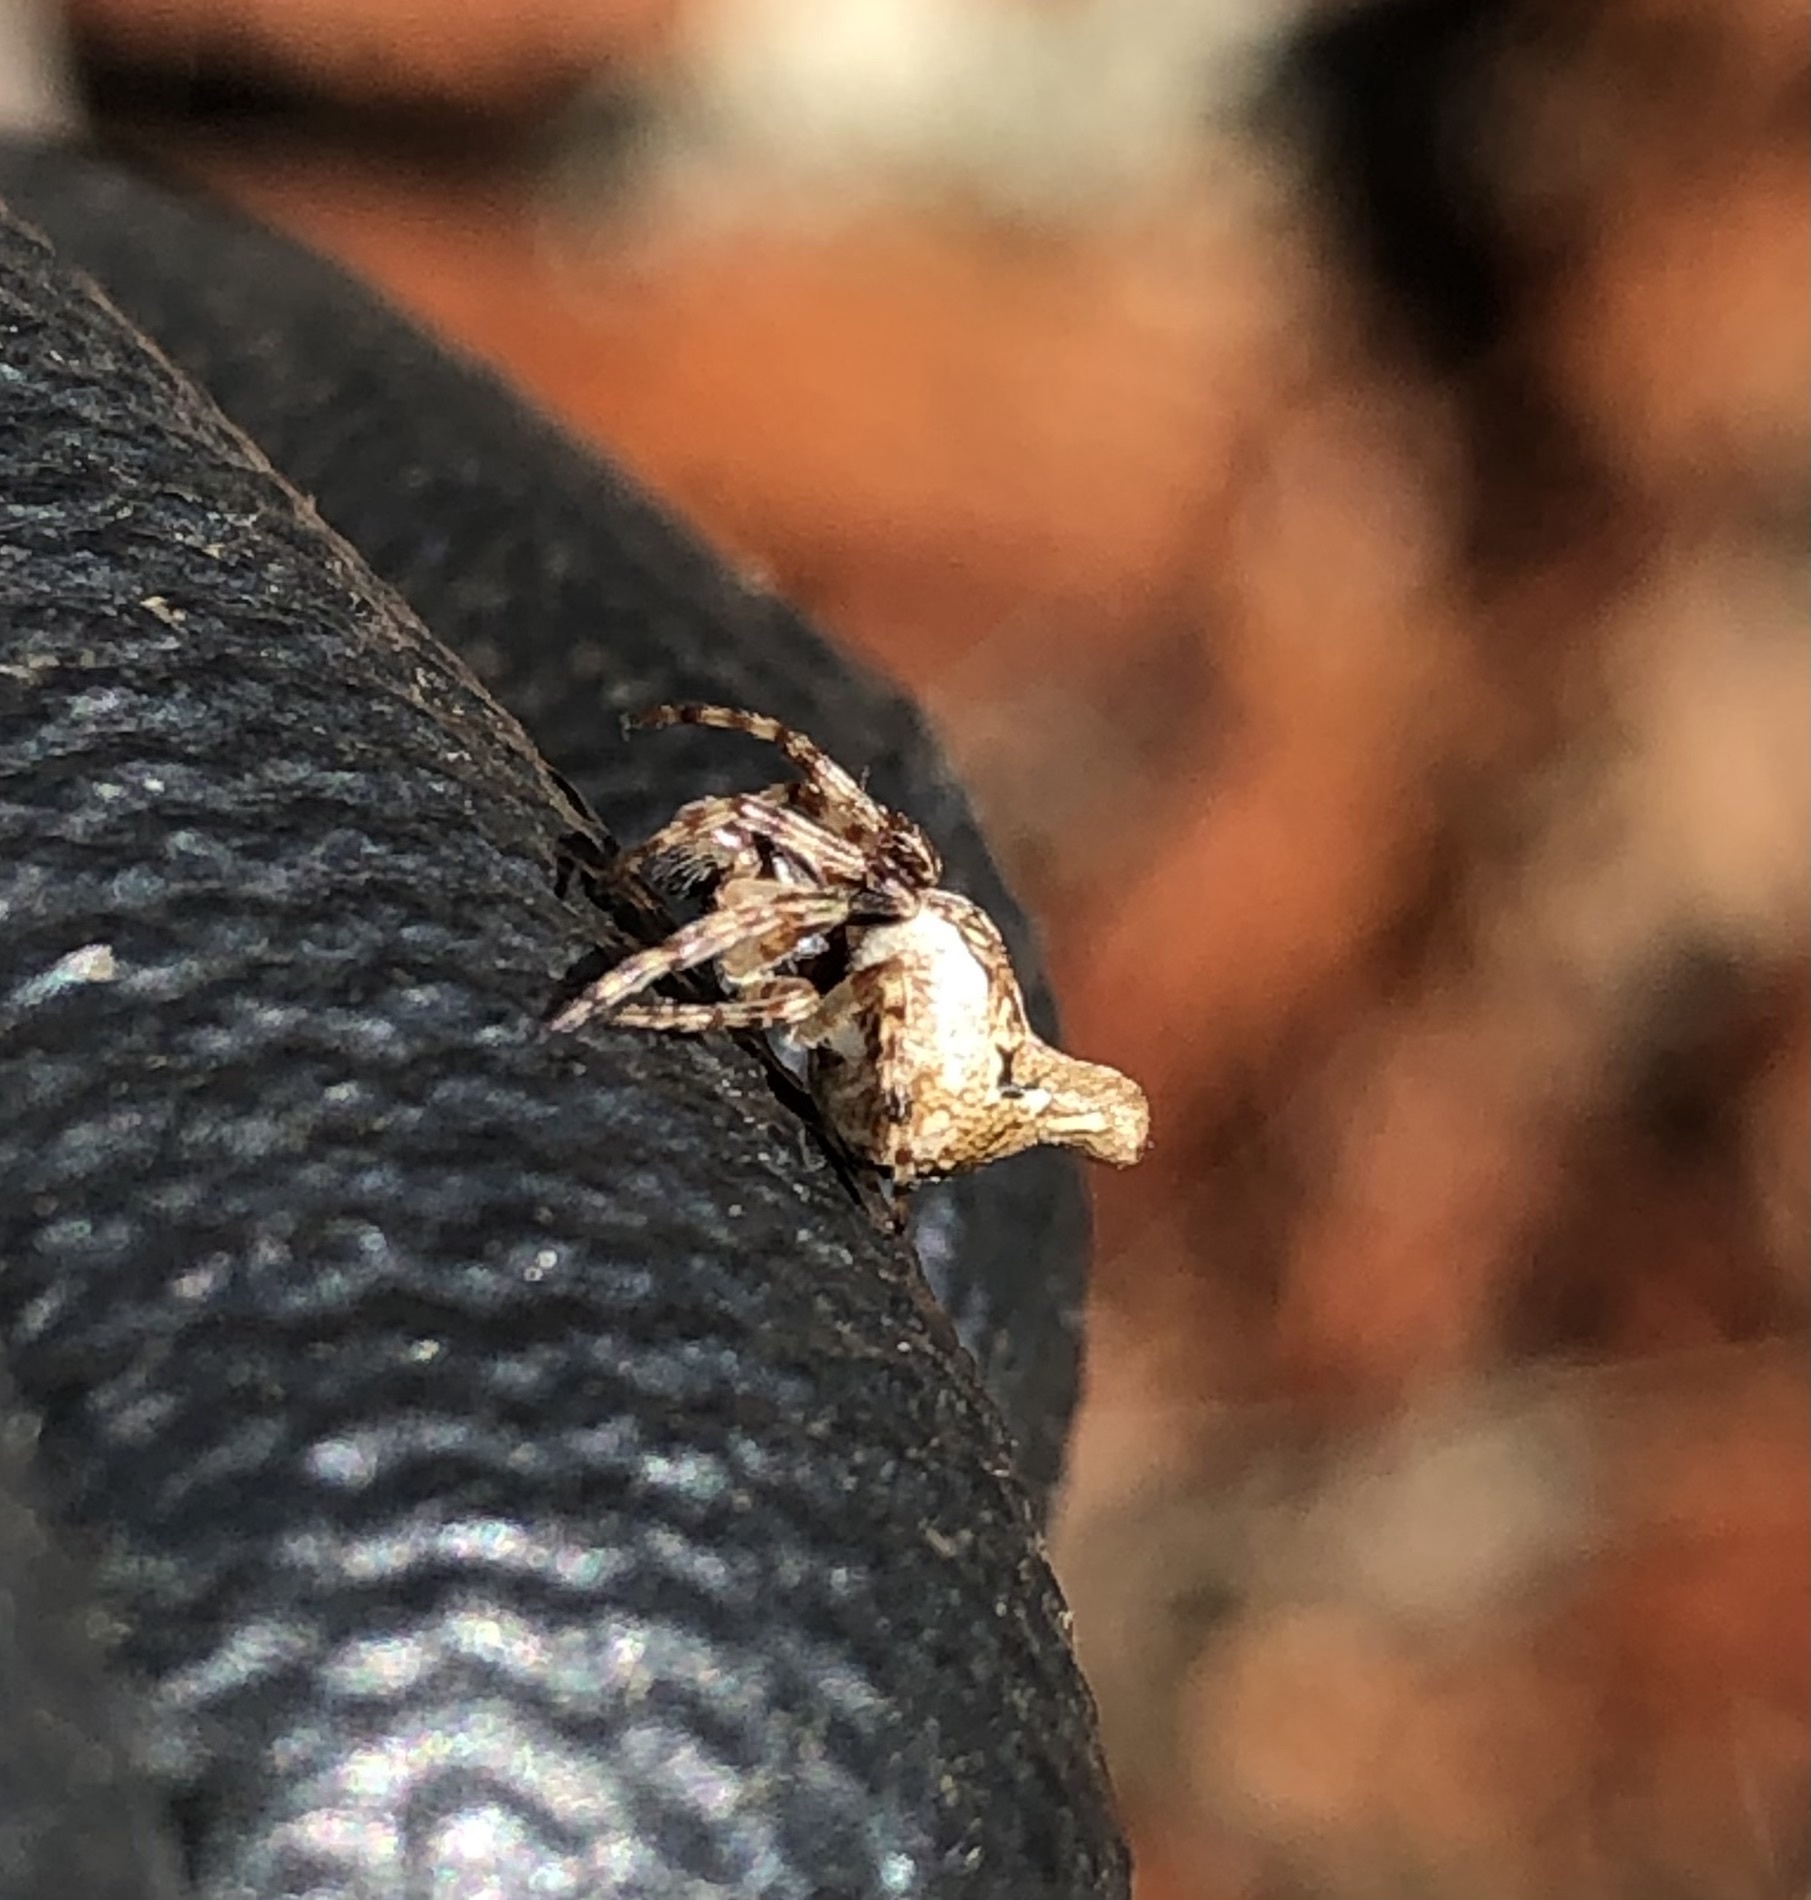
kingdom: Animalia
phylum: Arthropoda
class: Arachnida
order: Araneae
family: Araneidae
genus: Cyclosa
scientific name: Cyclosa conica
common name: Conical trashline orbweaver
